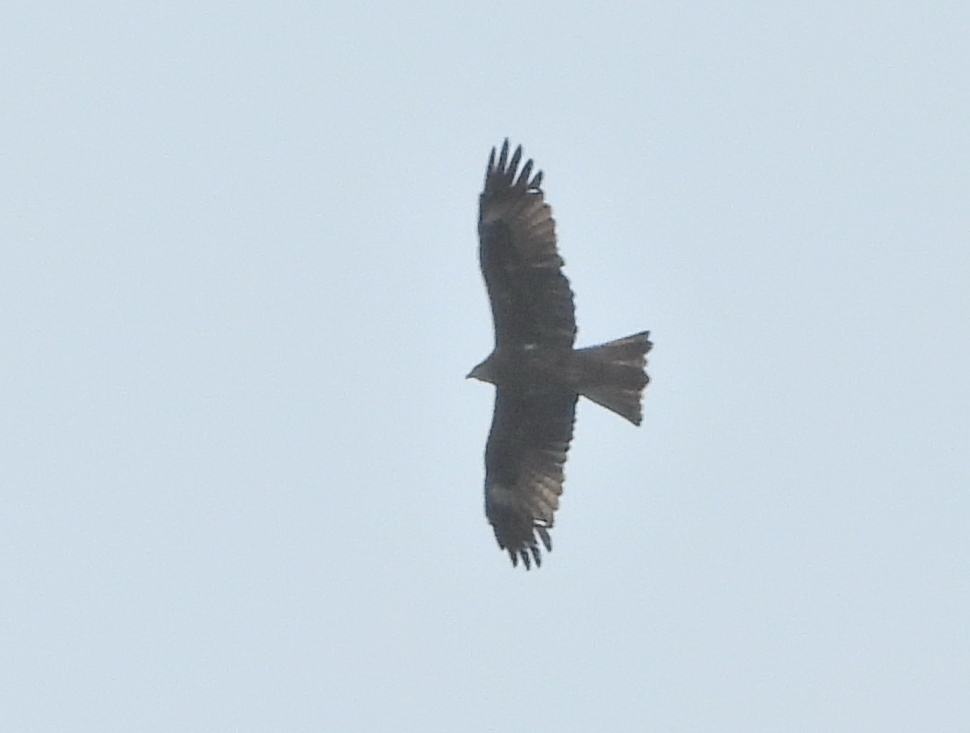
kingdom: Animalia
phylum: Chordata
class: Aves
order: Accipitriformes
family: Accipitridae
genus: Milvus
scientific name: Milvus migrans
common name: Black kite
